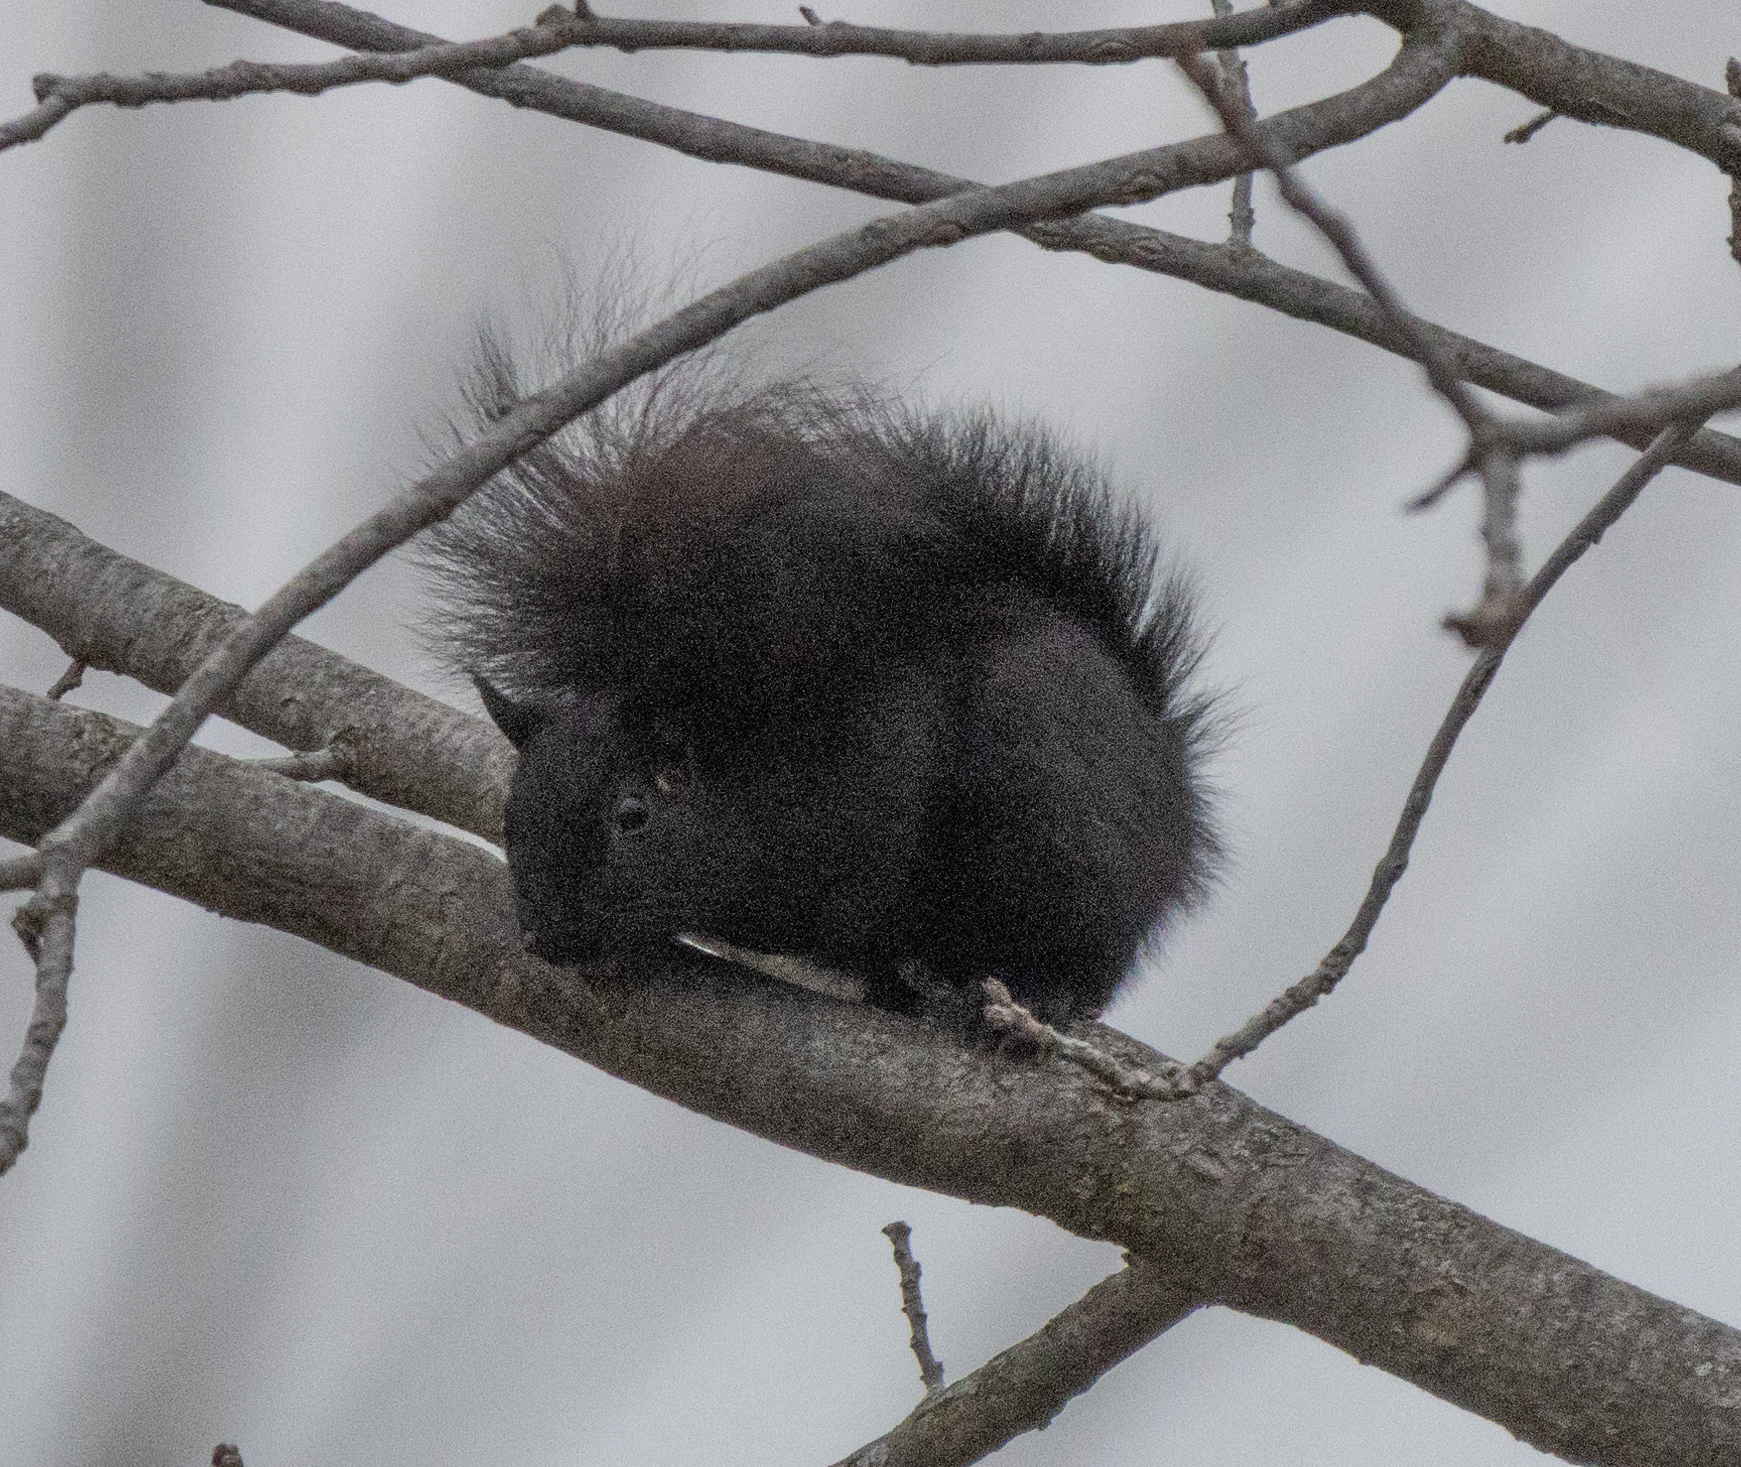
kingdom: Animalia
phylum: Chordata
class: Mammalia
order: Rodentia
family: Sciuridae
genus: Sciurus
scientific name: Sciurus carolinensis
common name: Eastern gray squirrel
